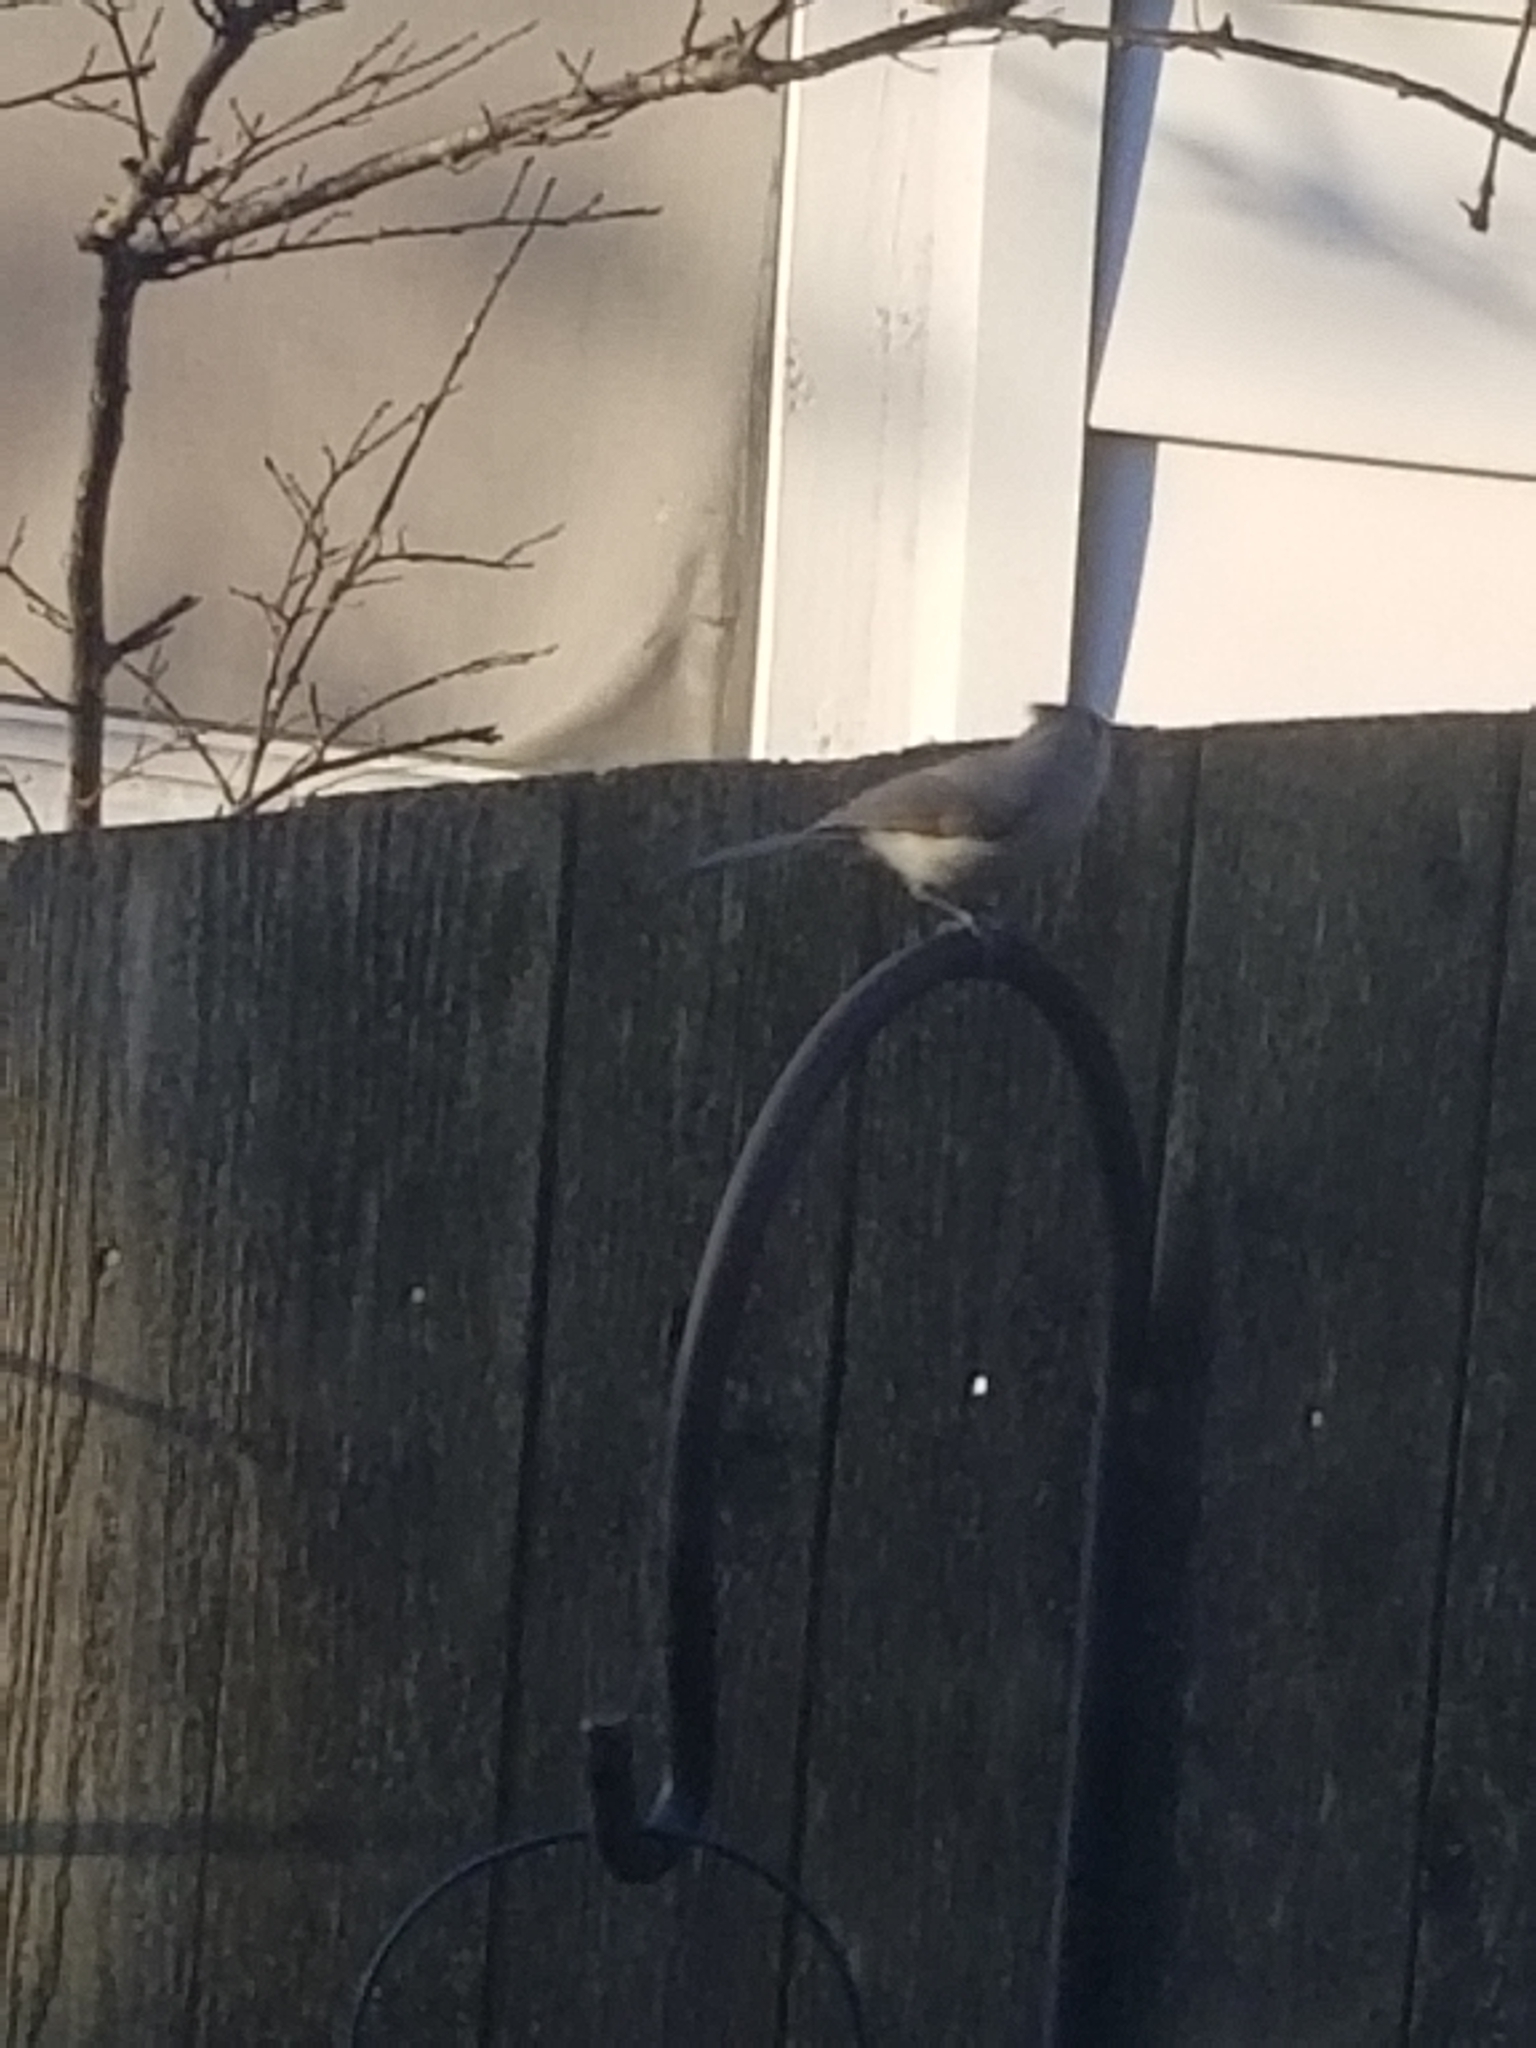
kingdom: Animalia
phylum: Chordata
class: Aves
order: Passeriformes
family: Paridae
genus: Baeolophus
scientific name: Baeolophus bicolor
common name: Tufted titmouse
